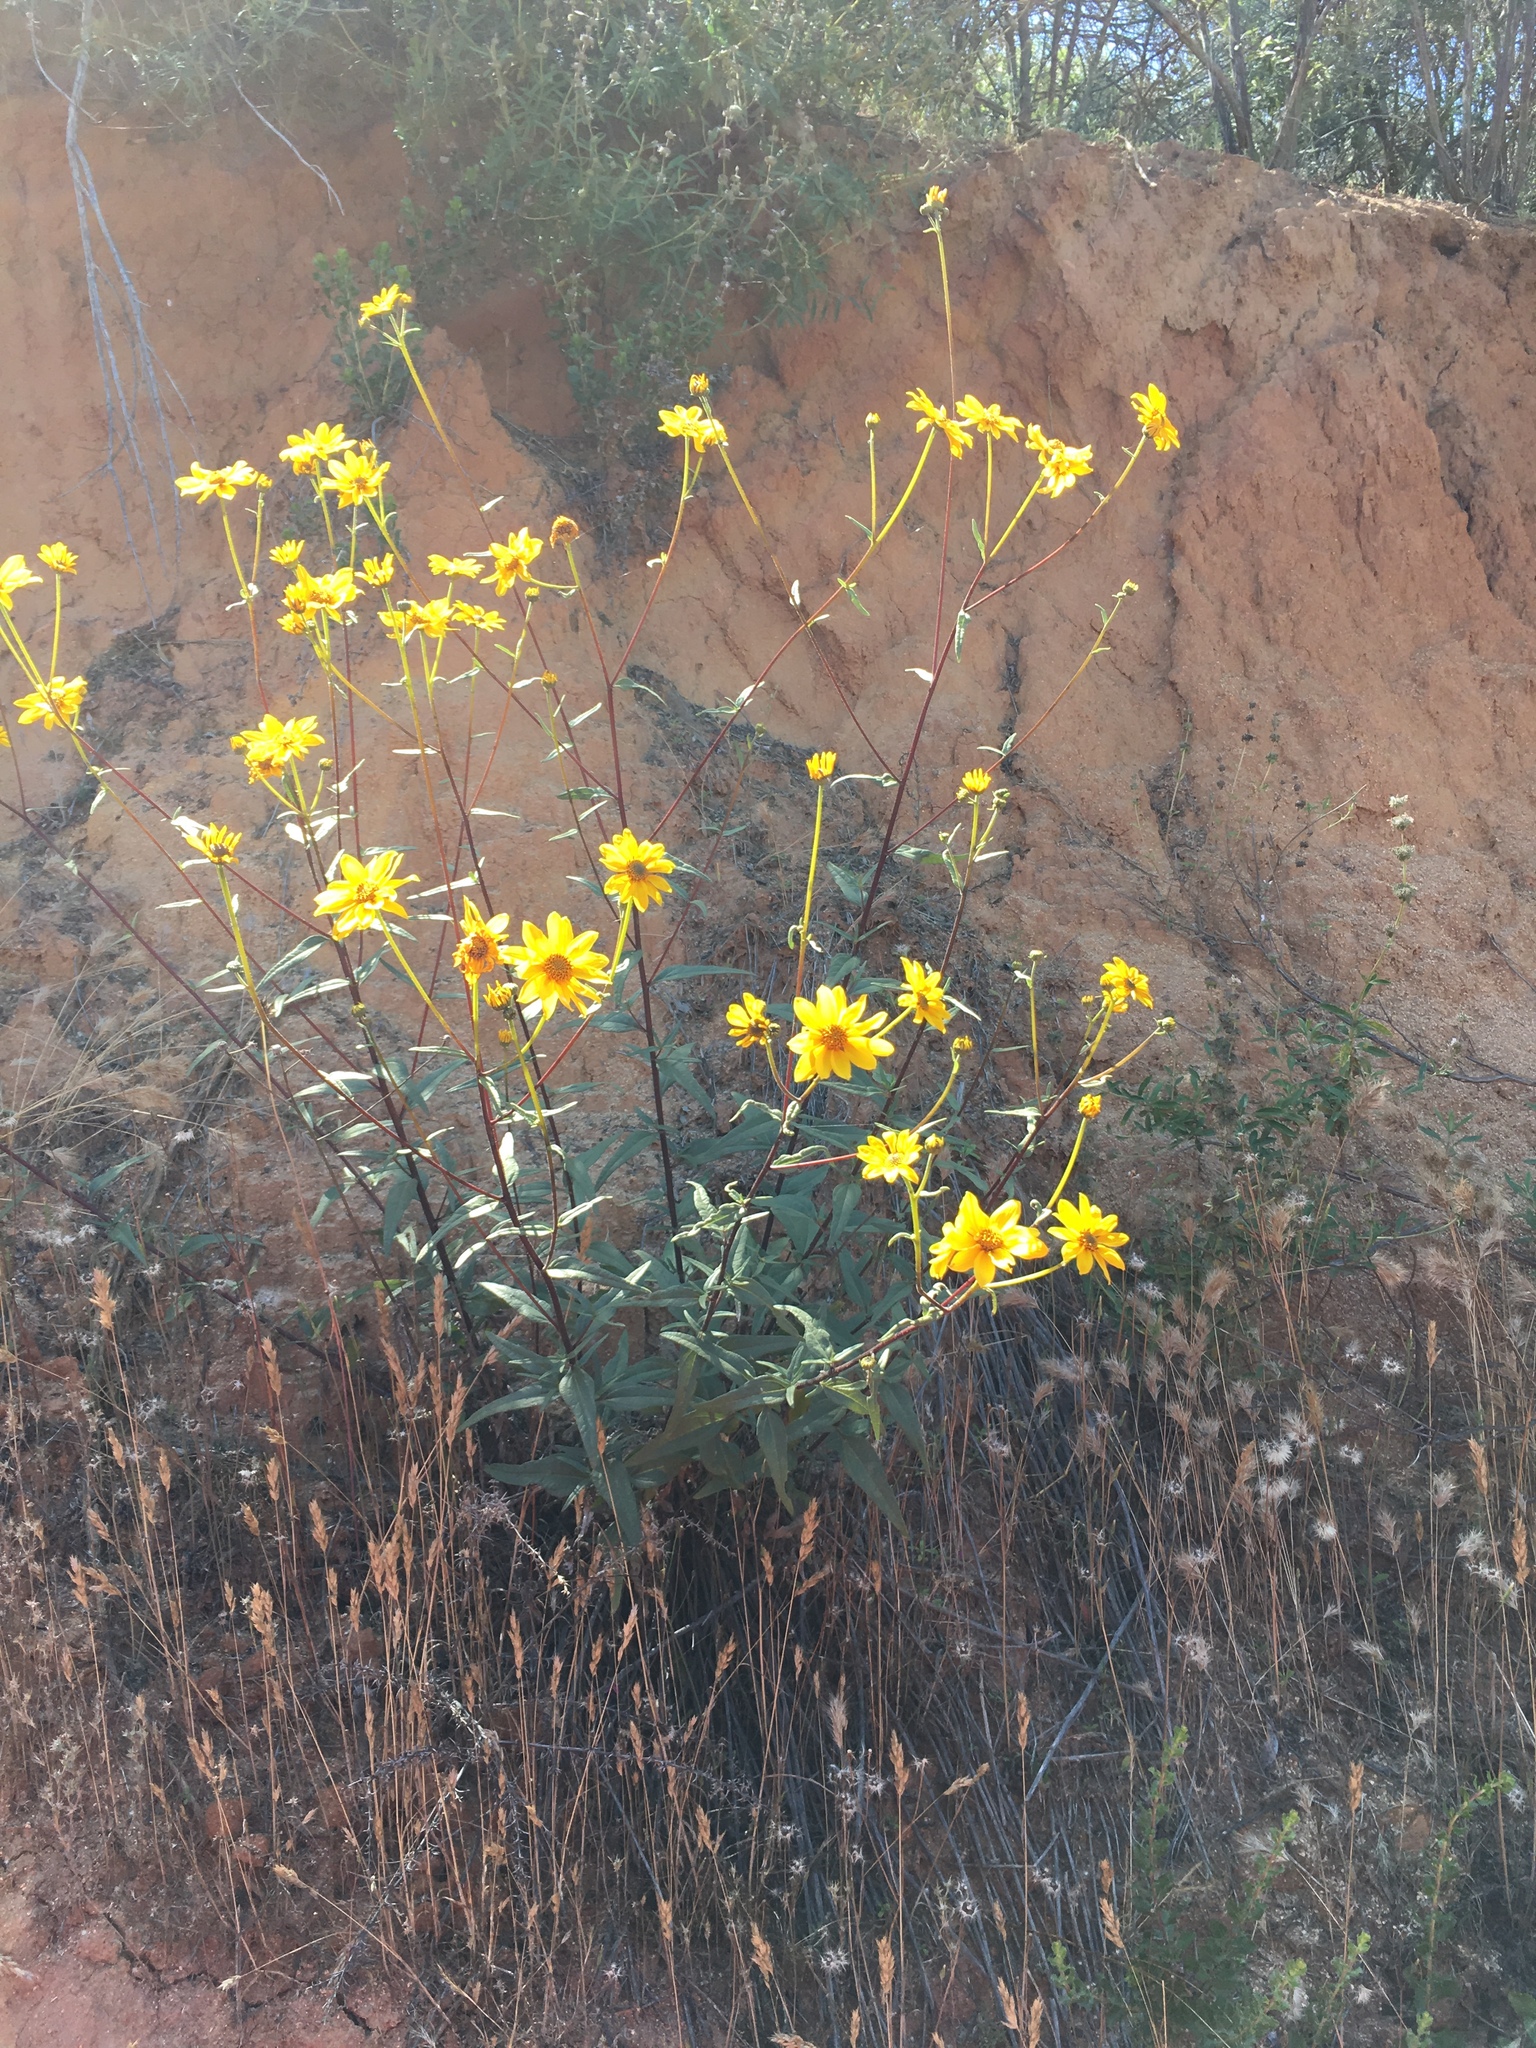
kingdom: Plantae
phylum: Tracheophyta
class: Magnoliopsida
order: Asterales
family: Asteraceae
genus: Helianthus
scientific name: Helianthus gracilentus
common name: Slender sunflower
